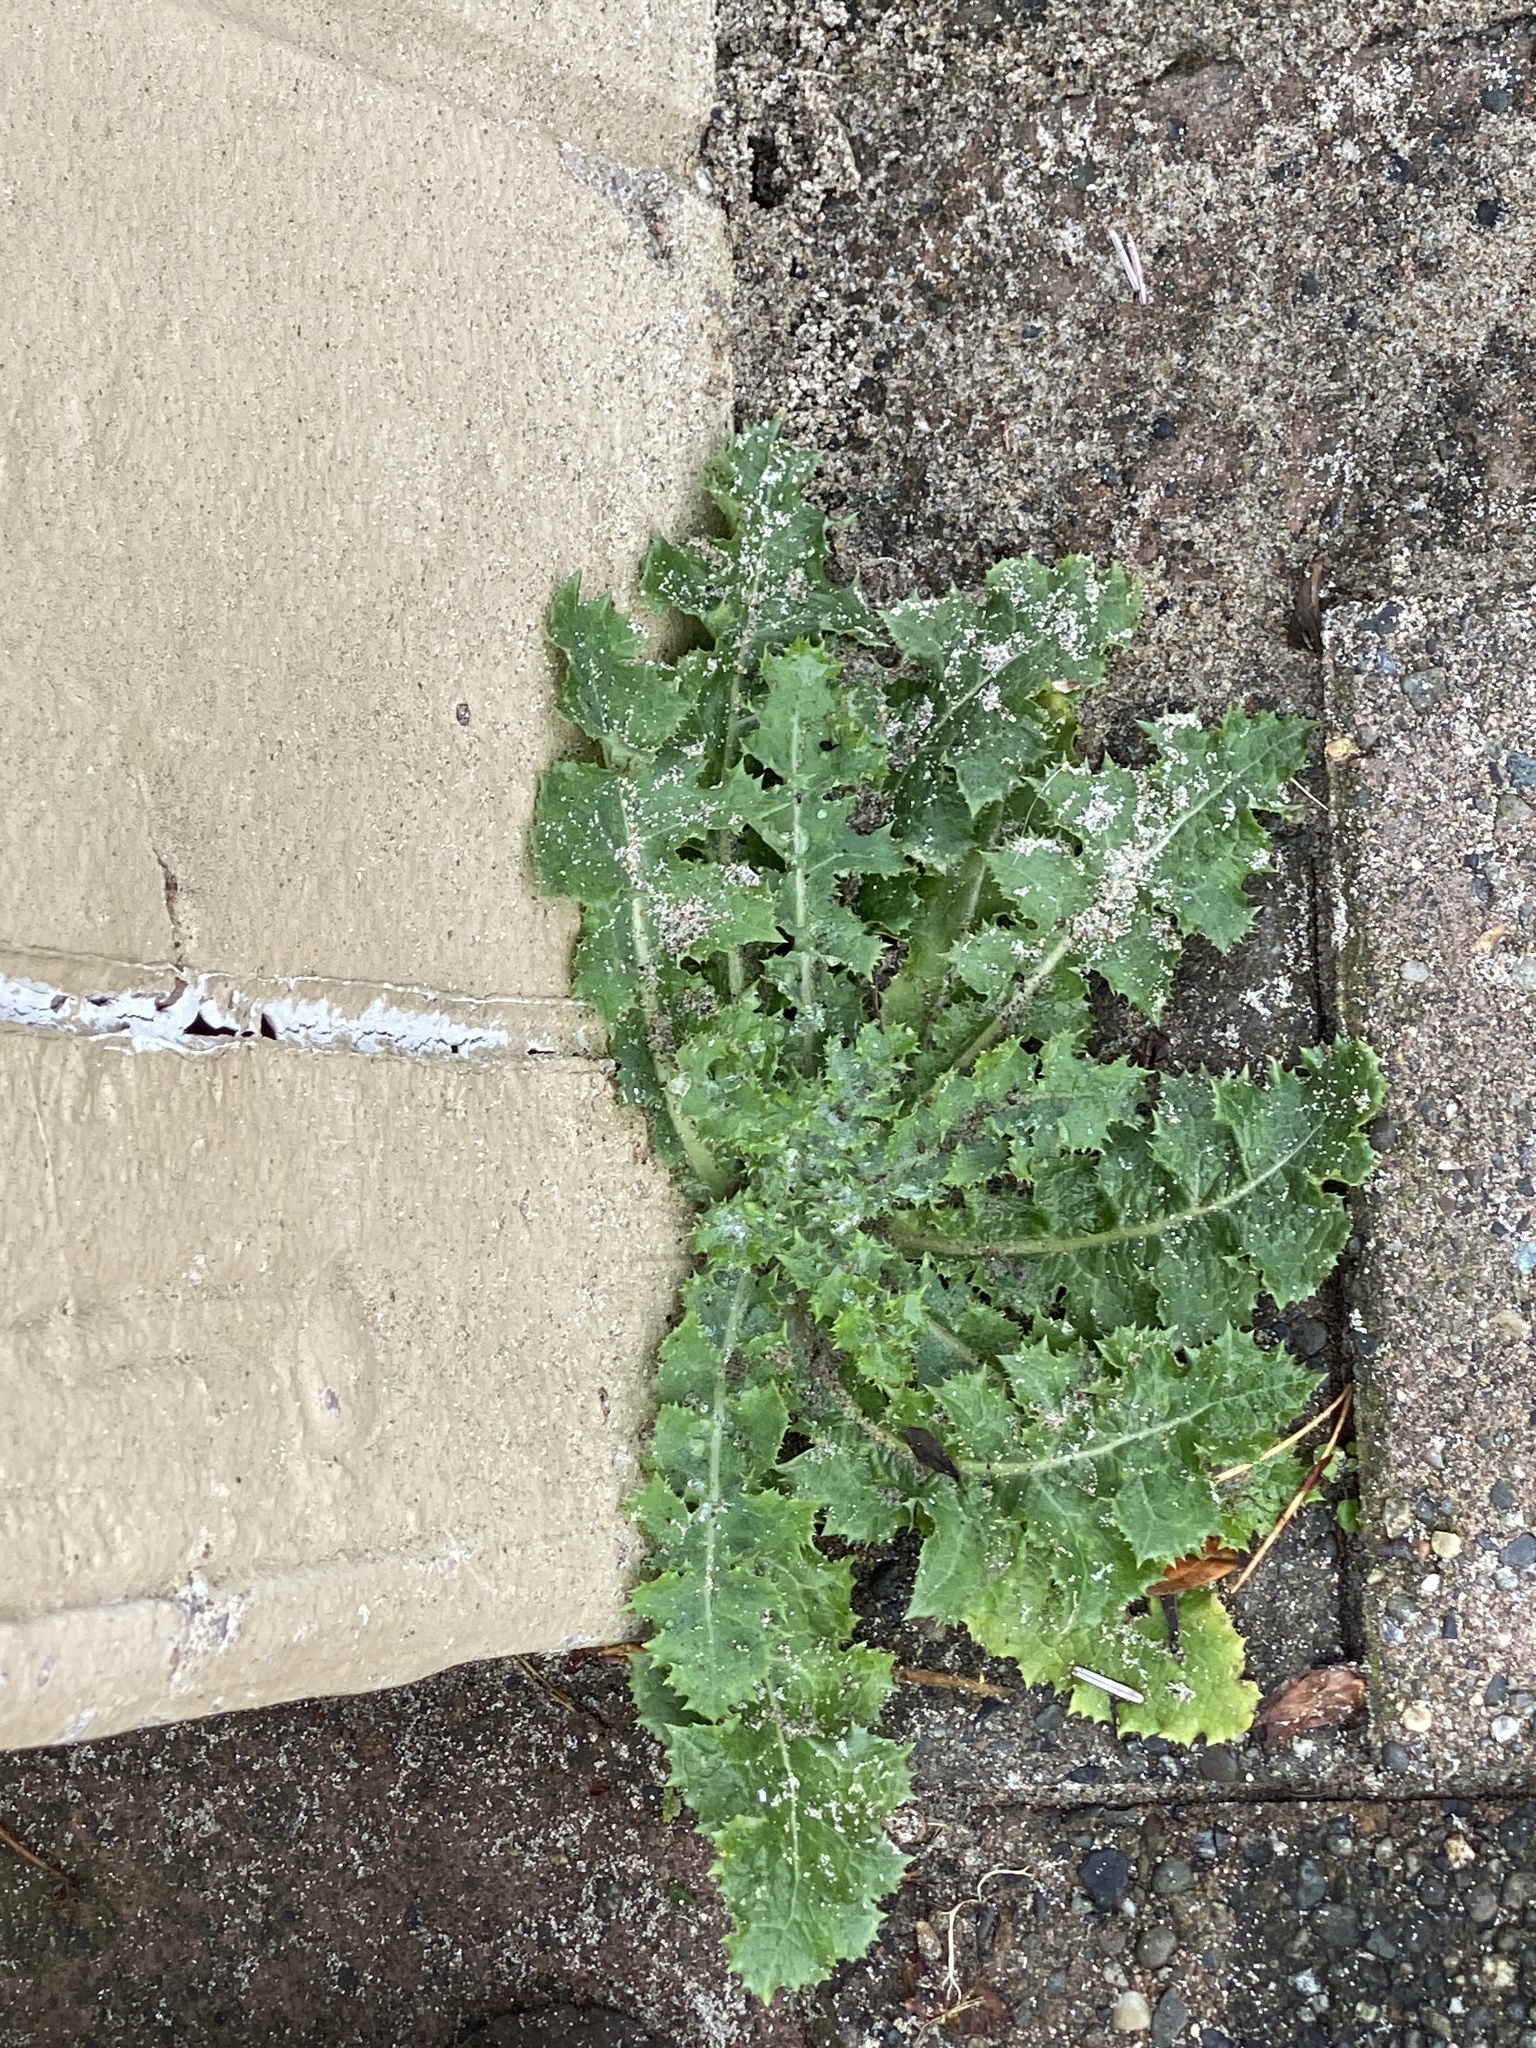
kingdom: Plantae
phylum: Tracheophyta
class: Magnoliopsida
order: Asterales
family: Asteraceae
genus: Sonchus
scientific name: Sonchus asper
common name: Prickly sow-thistle
